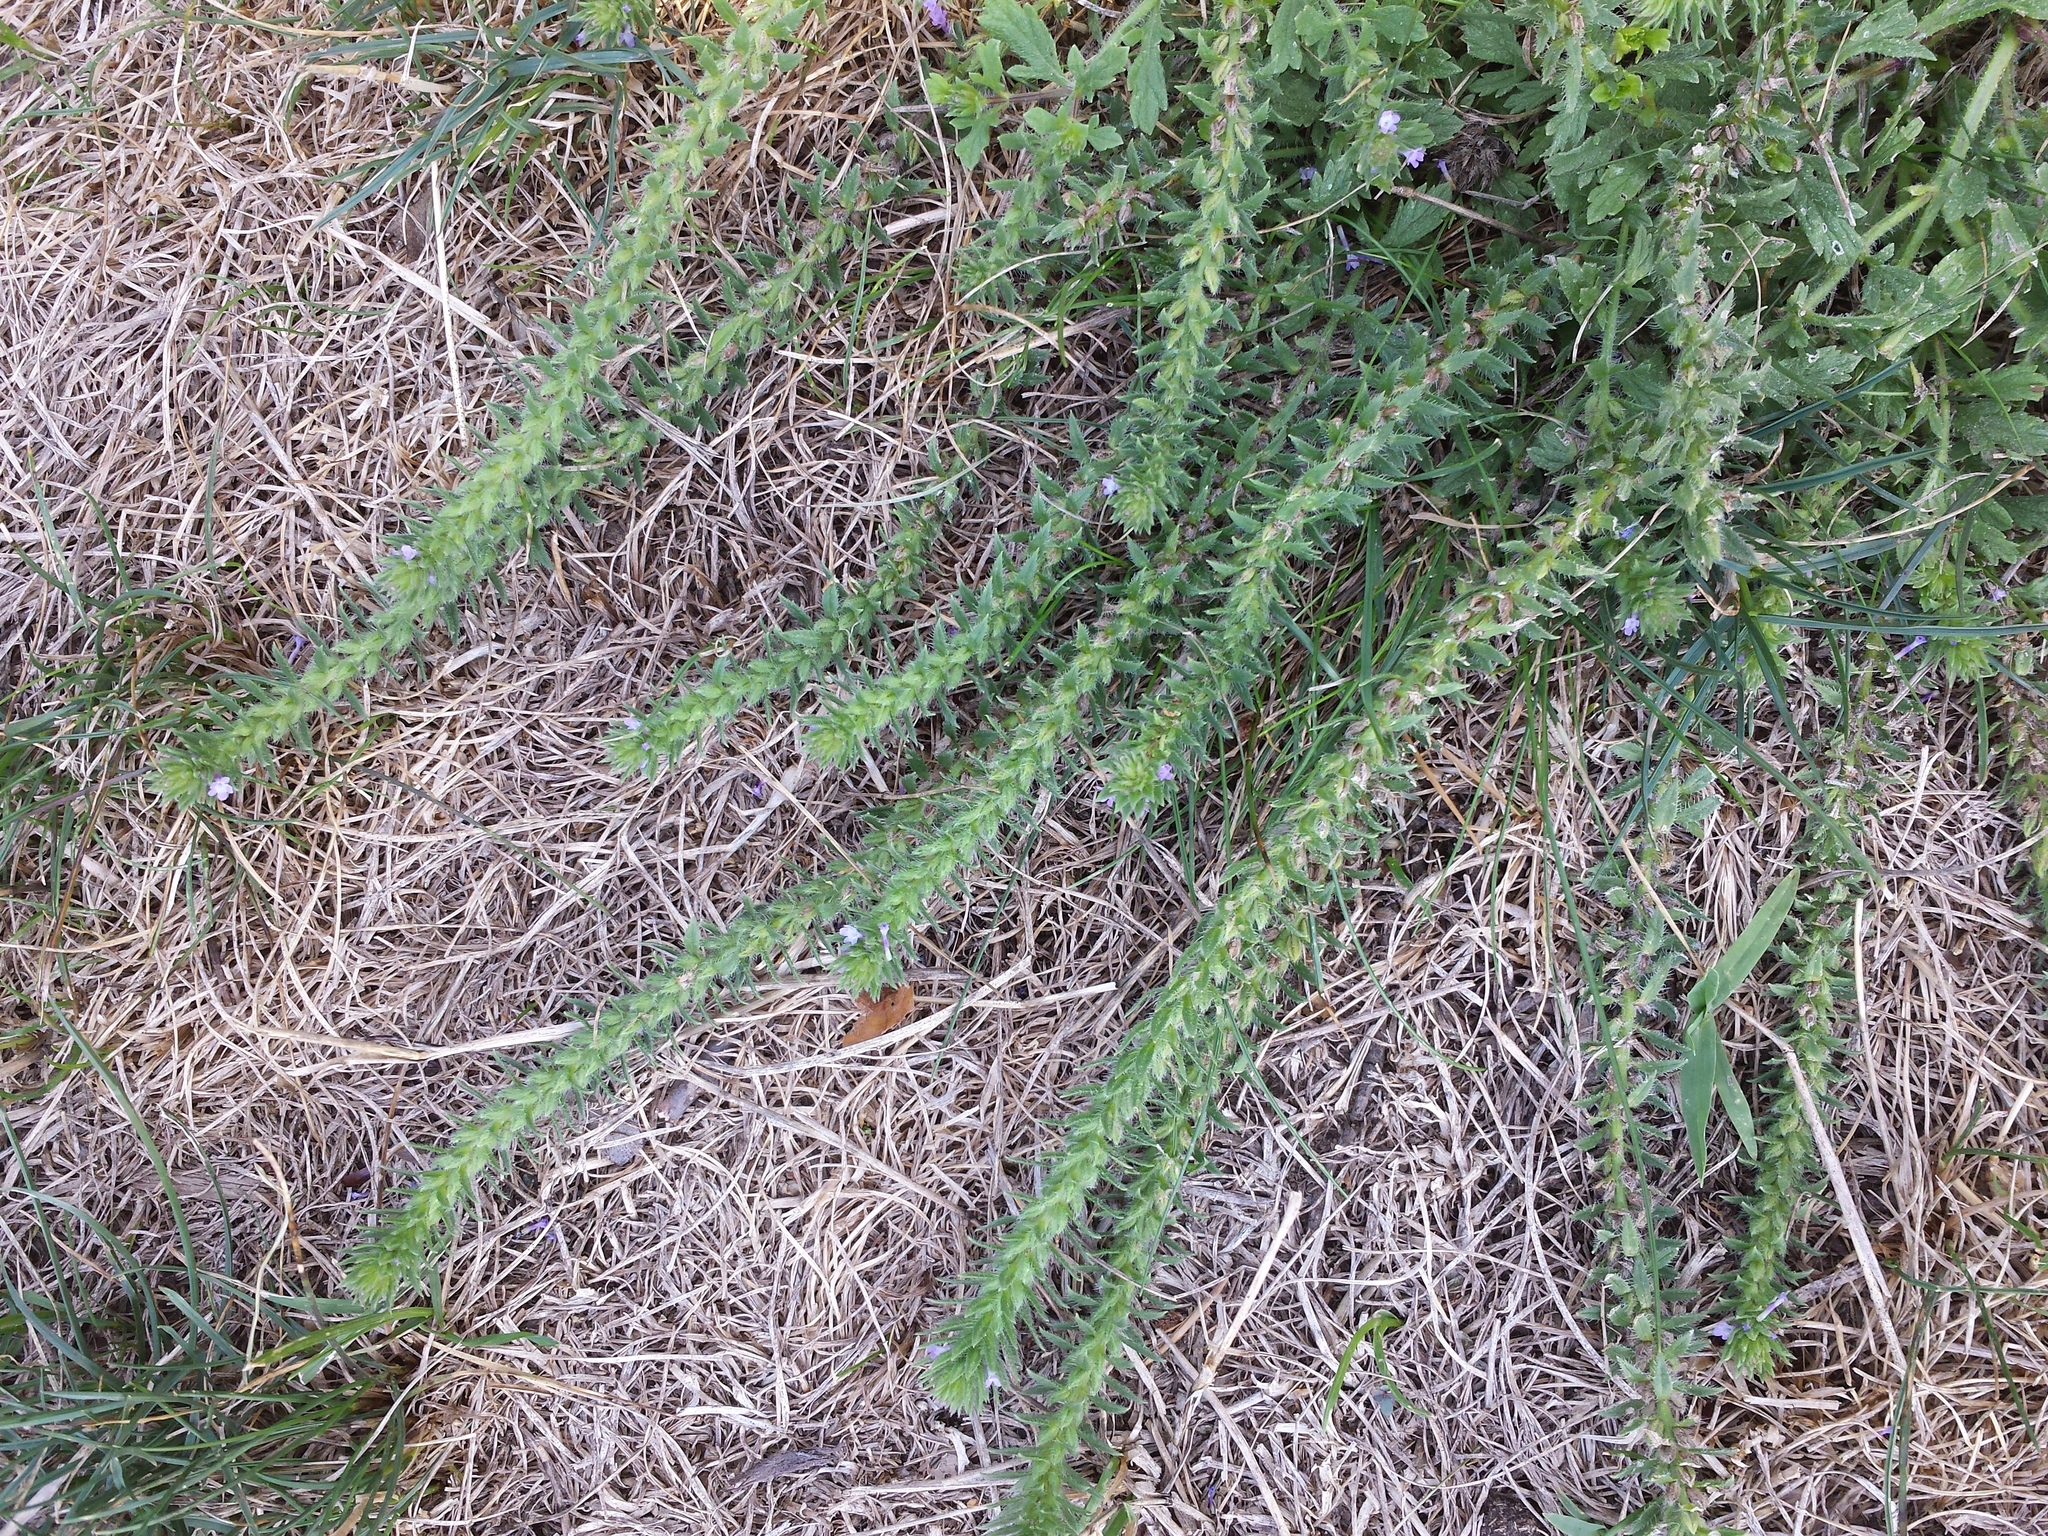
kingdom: Plantae
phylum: Tracheophyta
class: Magnoliopsida
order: Lamiales
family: Verbenaceae
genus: Verbena
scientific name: Verbena bracteata
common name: Bracted vervain
